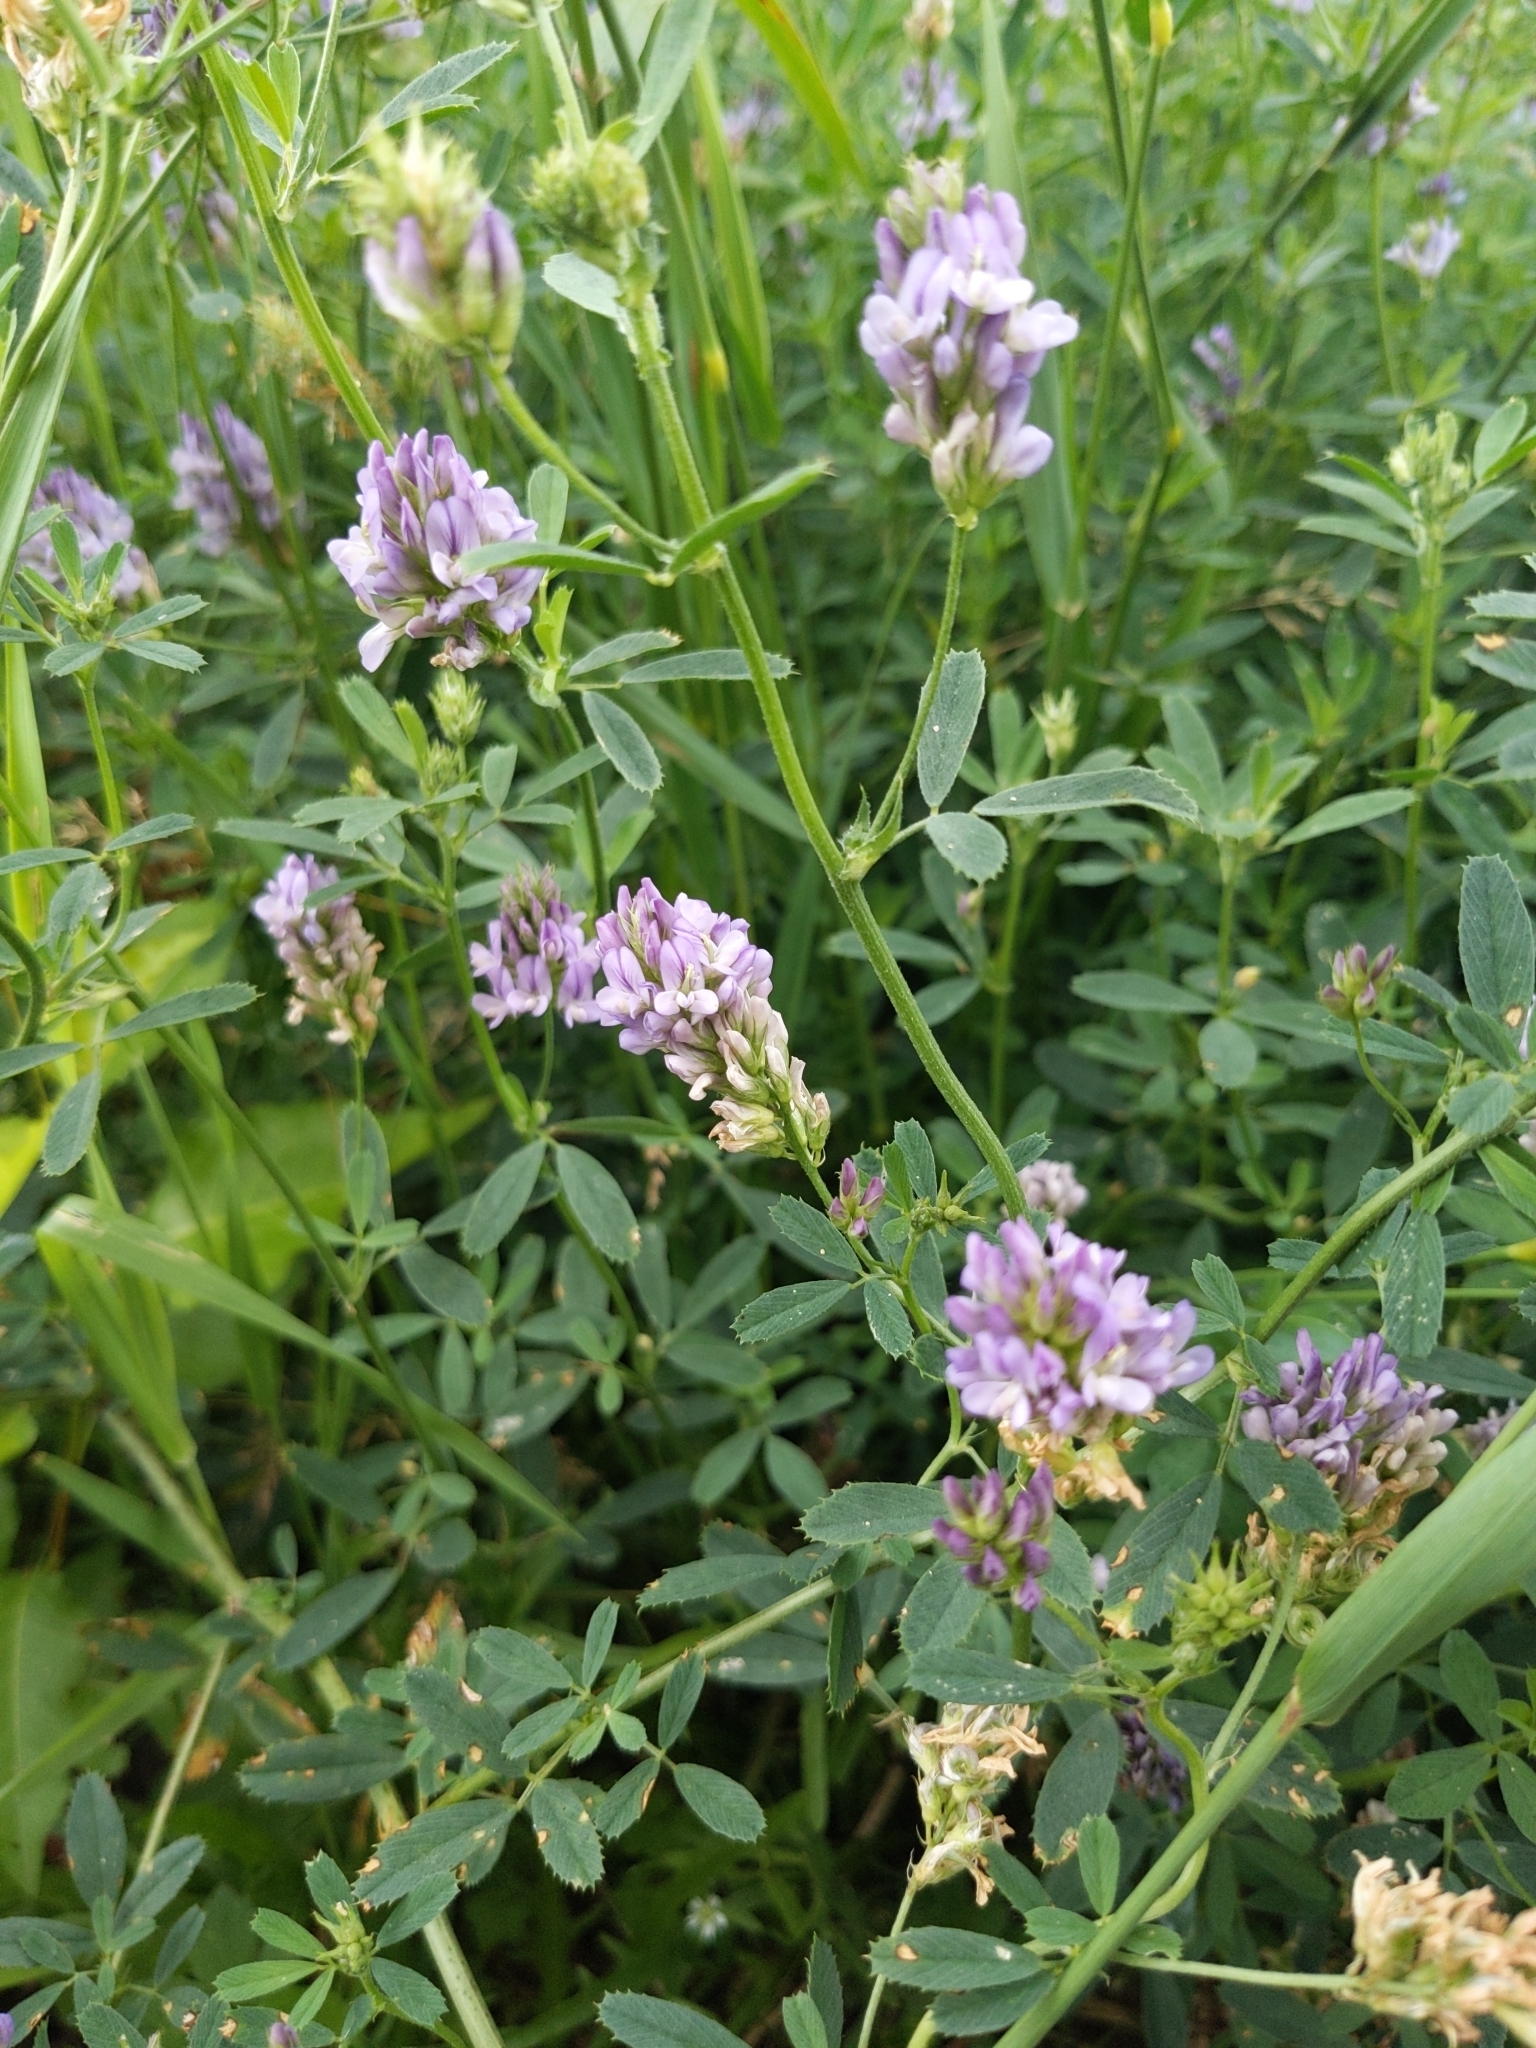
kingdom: Plantae
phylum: Tracheophyta
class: Magnoliopsida
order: Fabales
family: Fabaceae
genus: Medicago
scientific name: Medicago sativa
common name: Alfalfa
